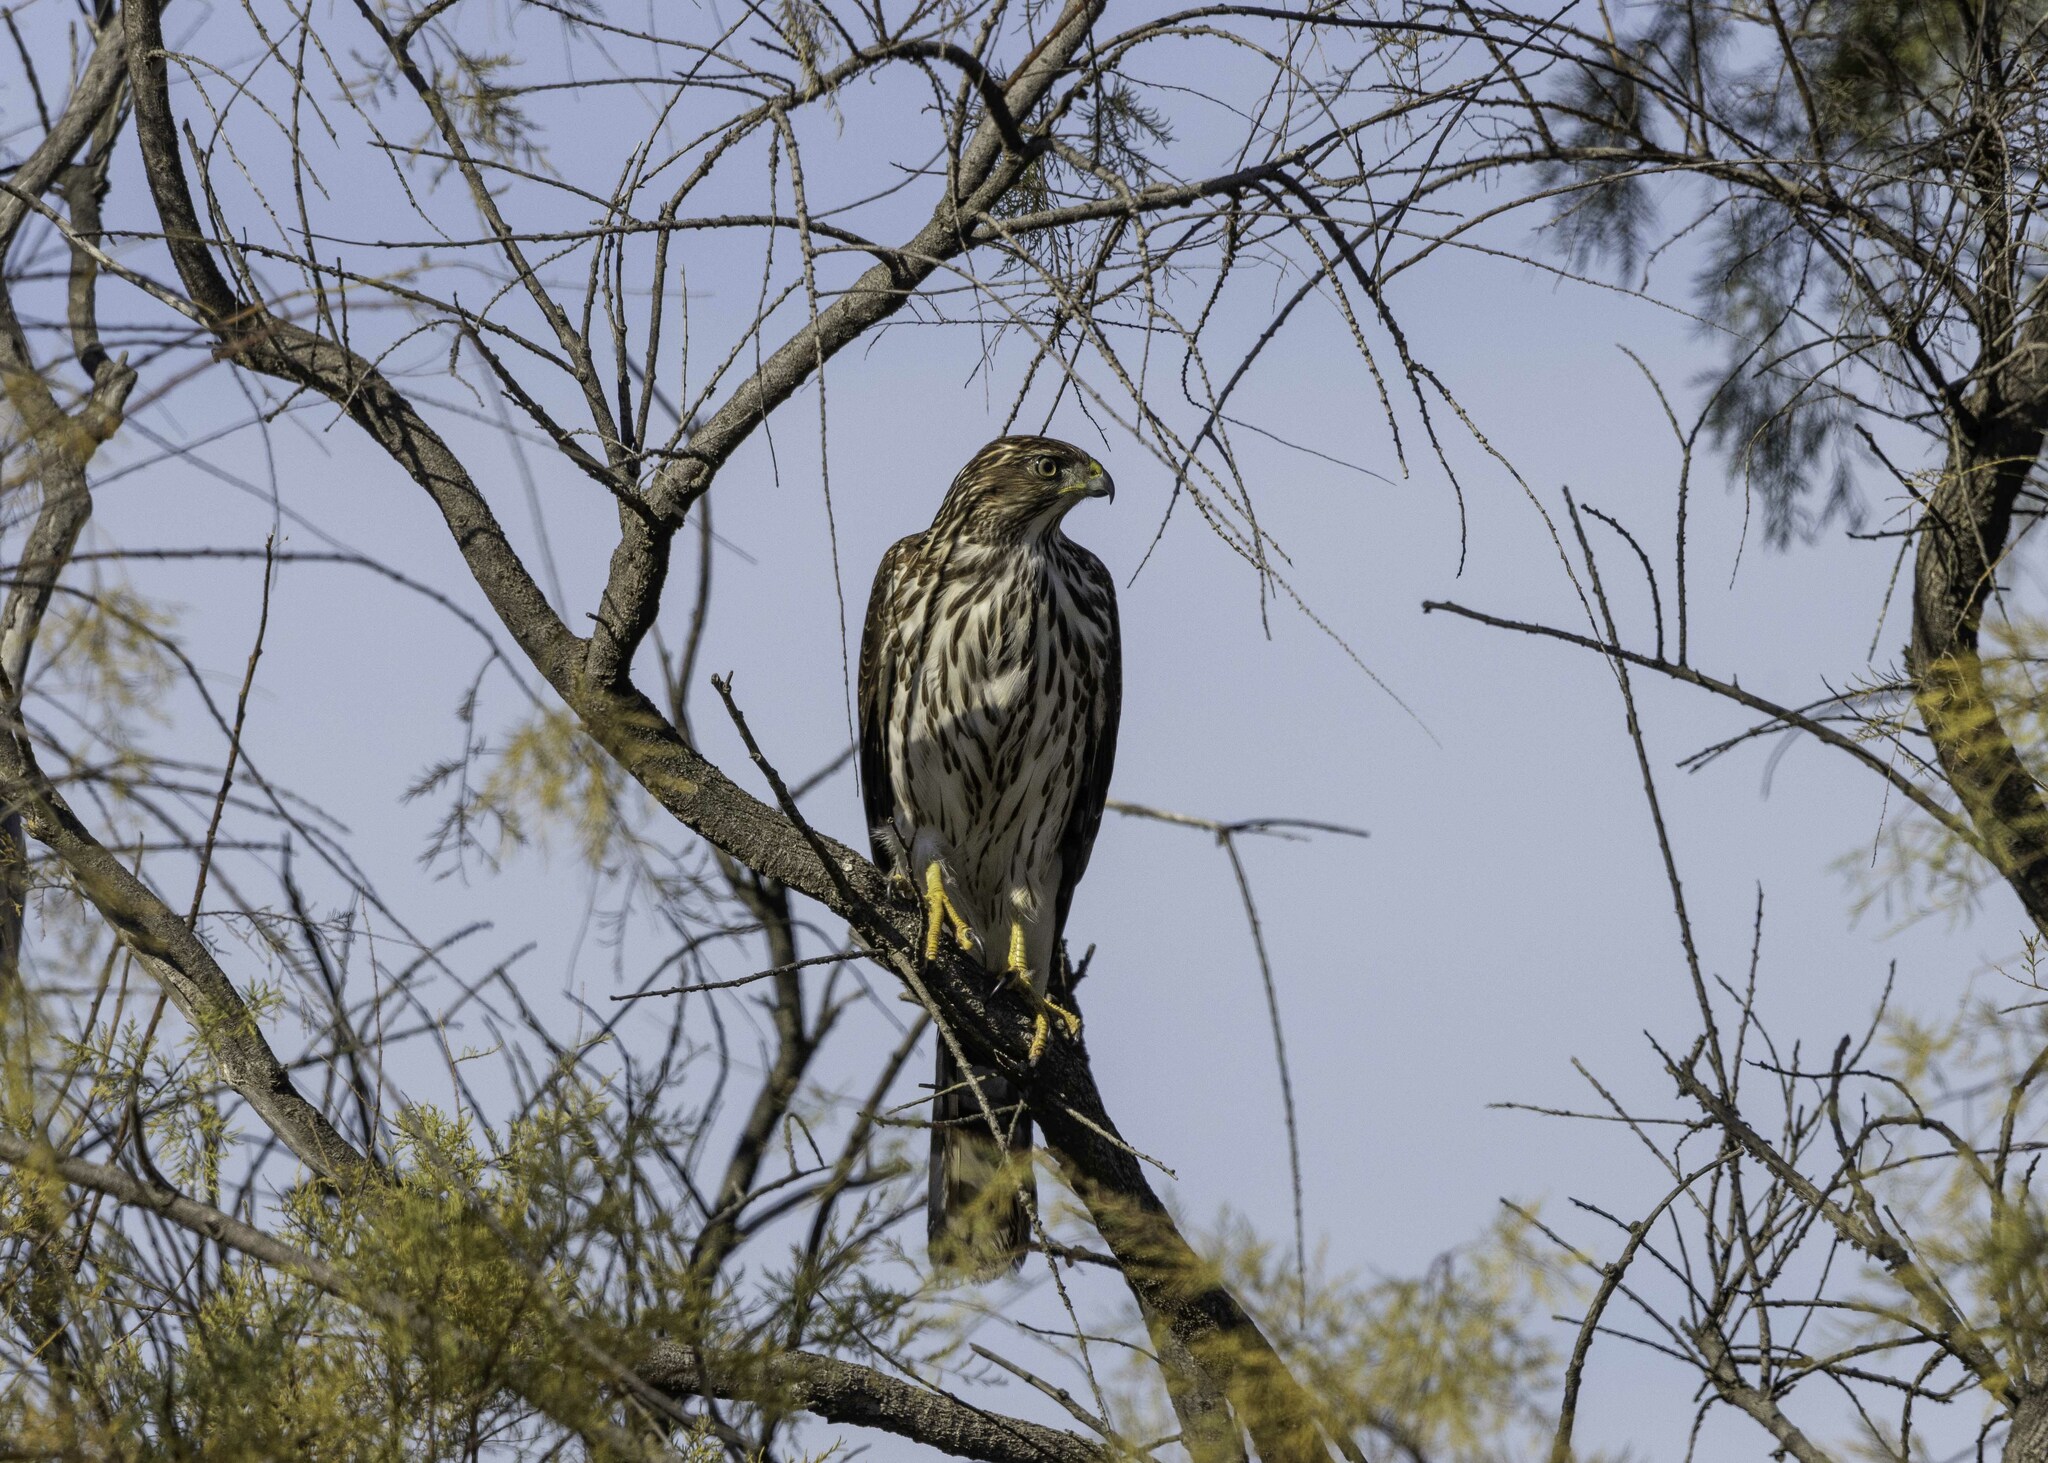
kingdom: Animalia
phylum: Chordata
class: Aves
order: Accipitriformes
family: Accipitridae
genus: Accipiter
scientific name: Accipiter cooperii
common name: Cooper's hawk
